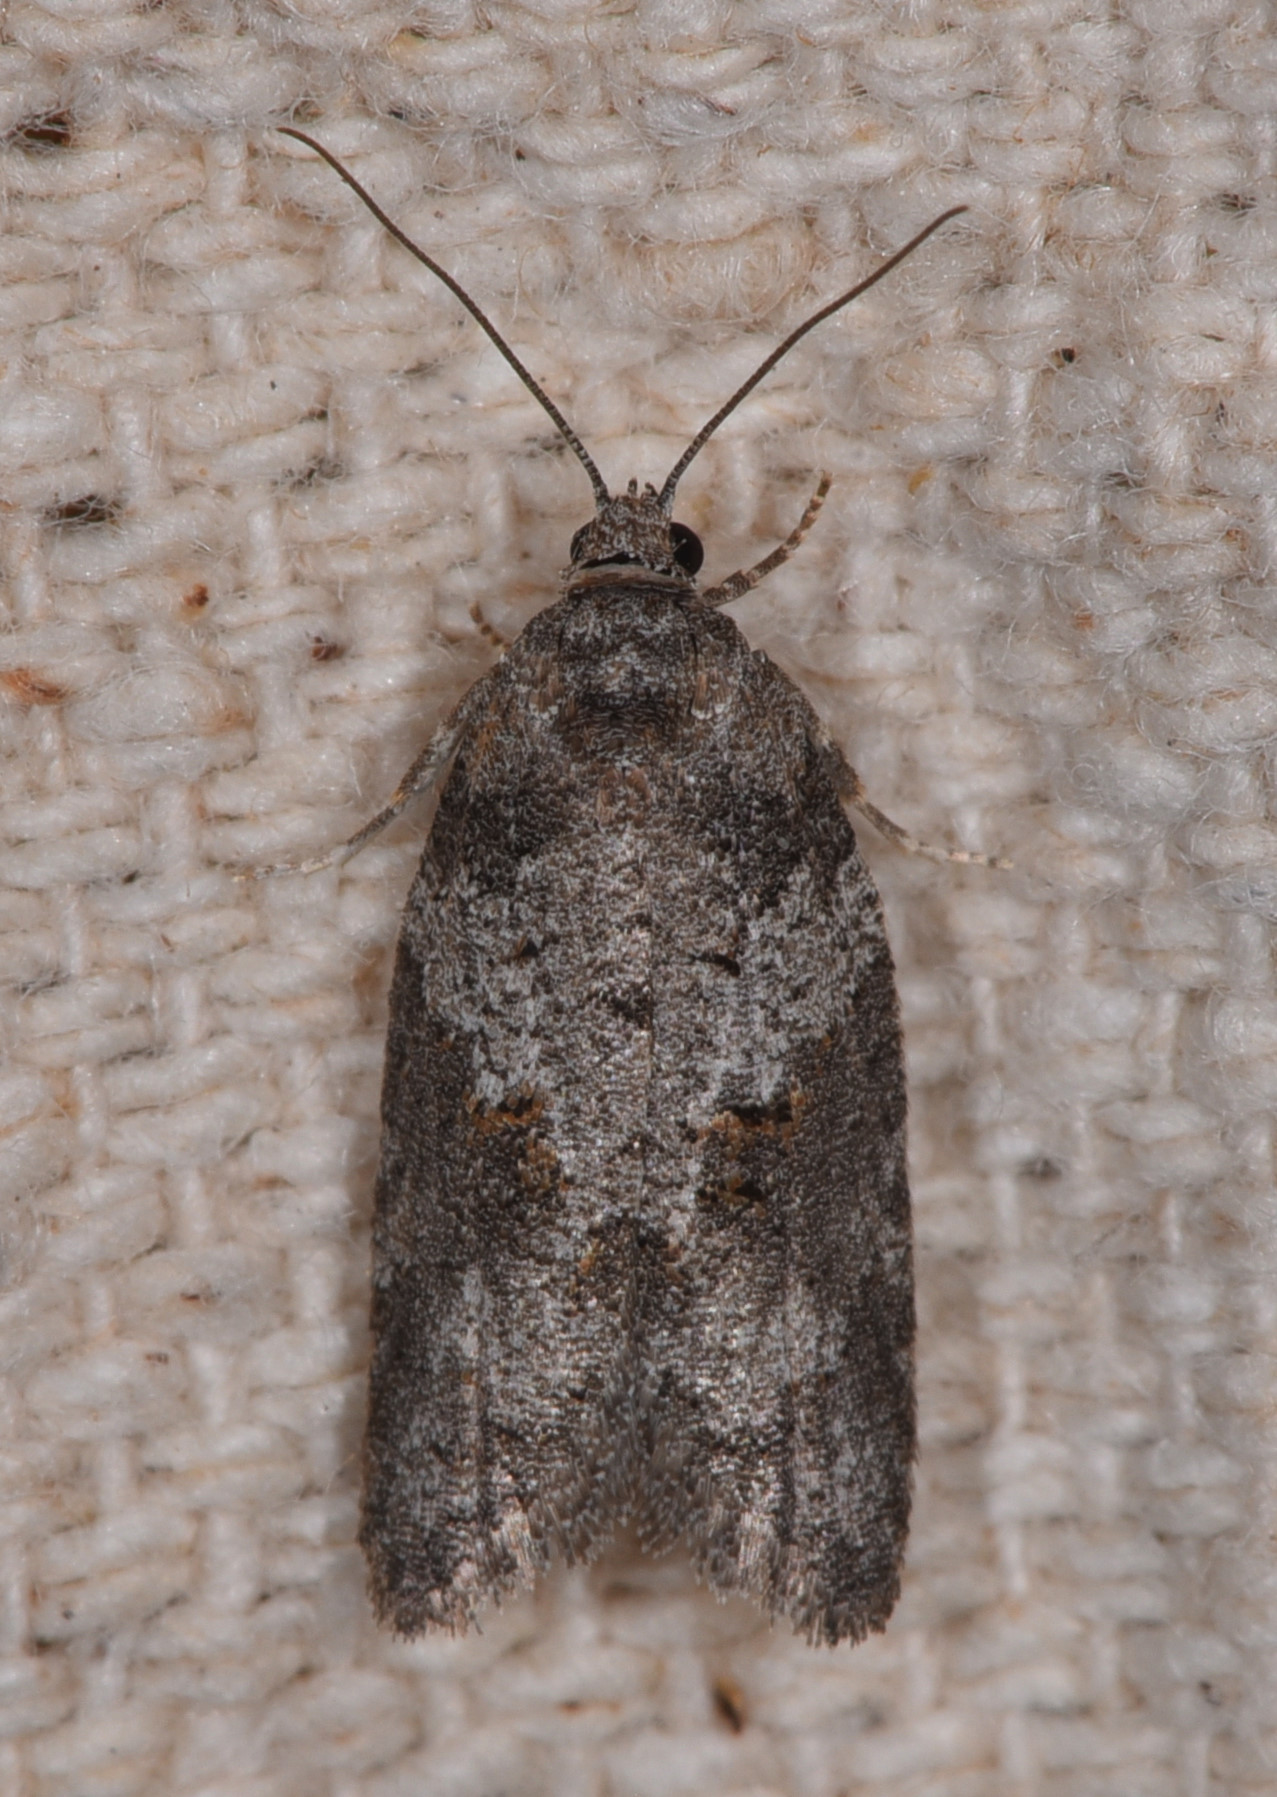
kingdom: Animalia
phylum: Arthropoda
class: Insecta
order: Lepidoptera
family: Tortricidae
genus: Decodes
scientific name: Decodes fragariana
